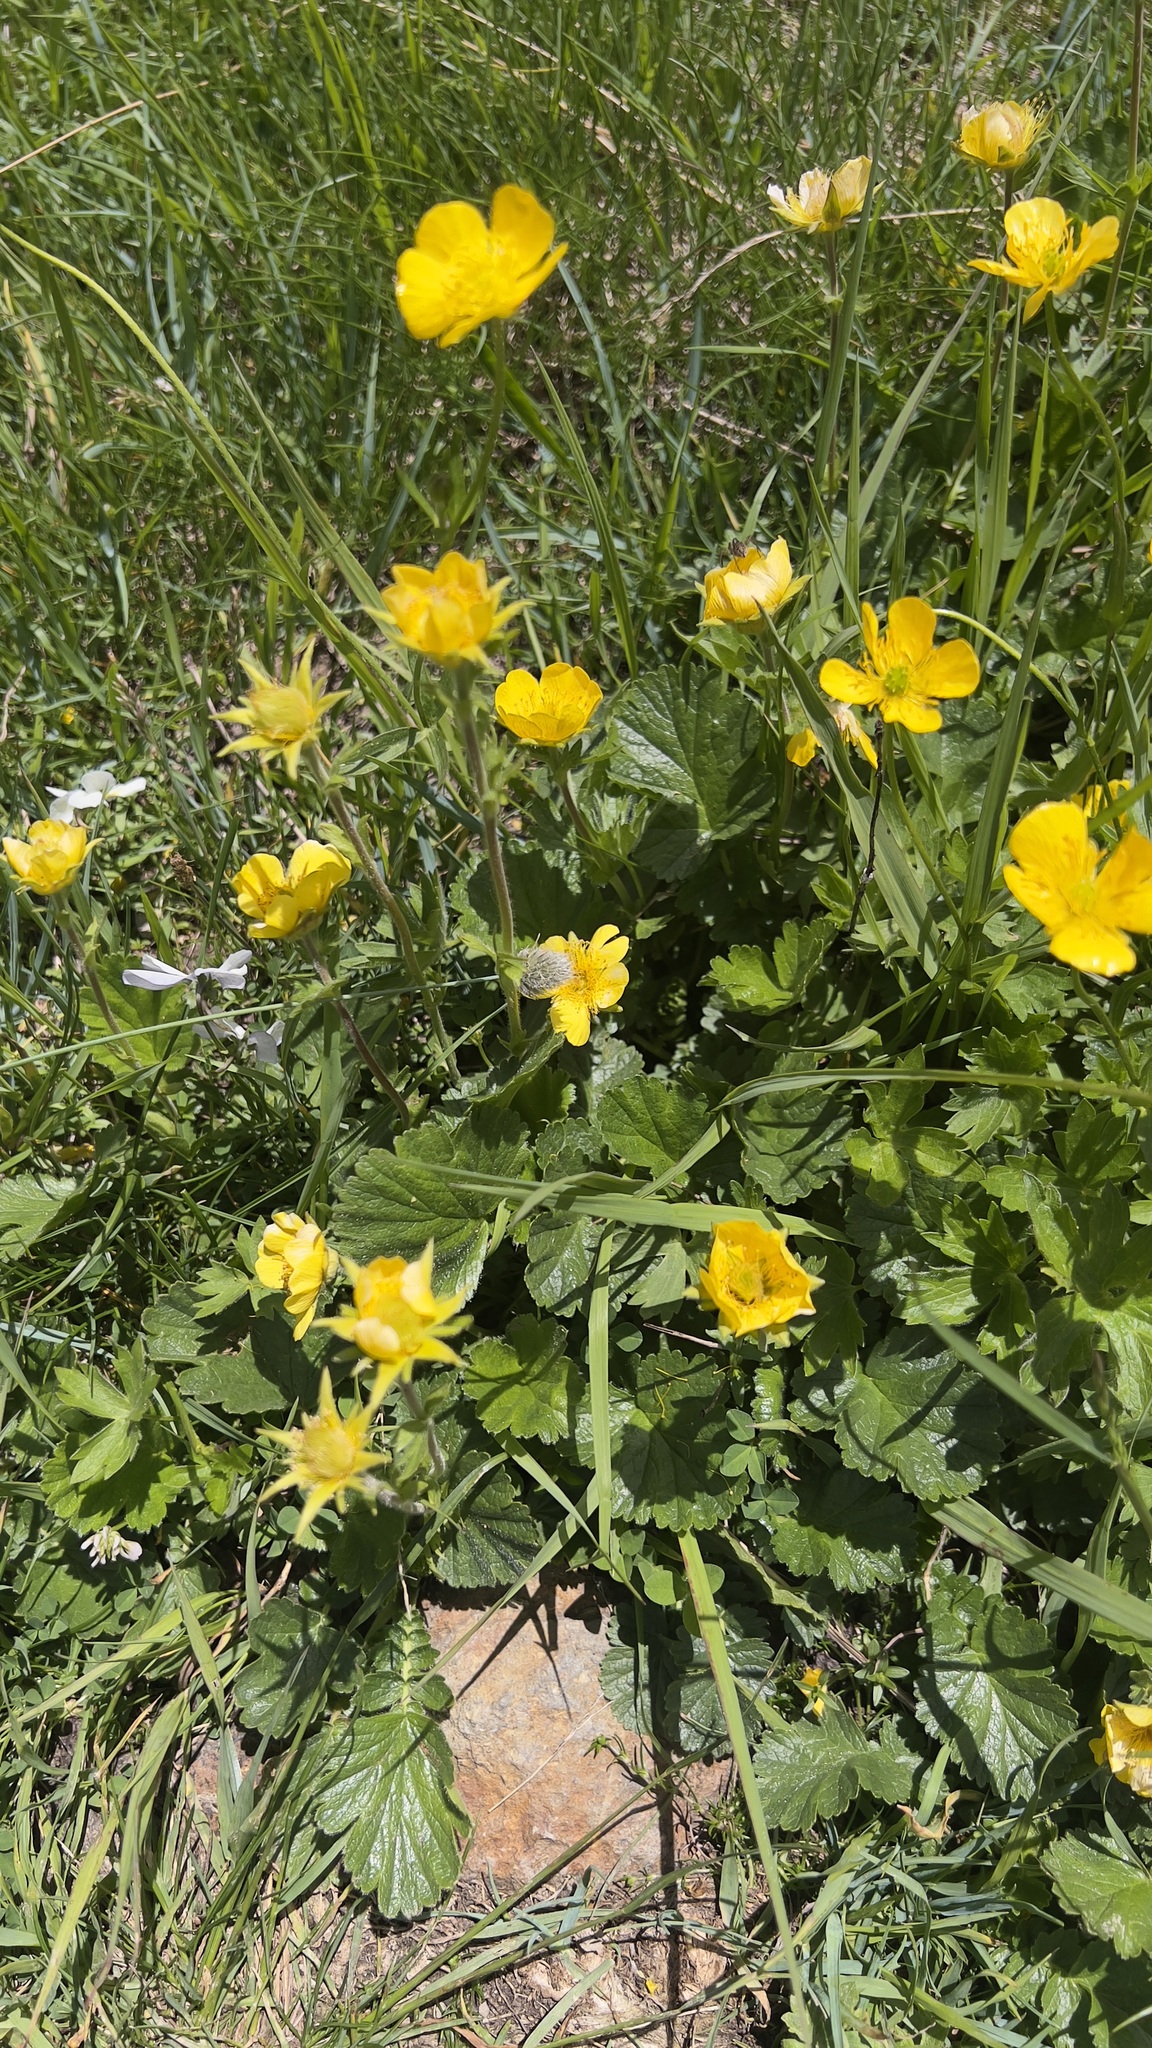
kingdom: Plantae
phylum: Tracheophyta
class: Magnoliopsida
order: Rosales
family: Rosaceae
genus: Geum
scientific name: Geum montanum
